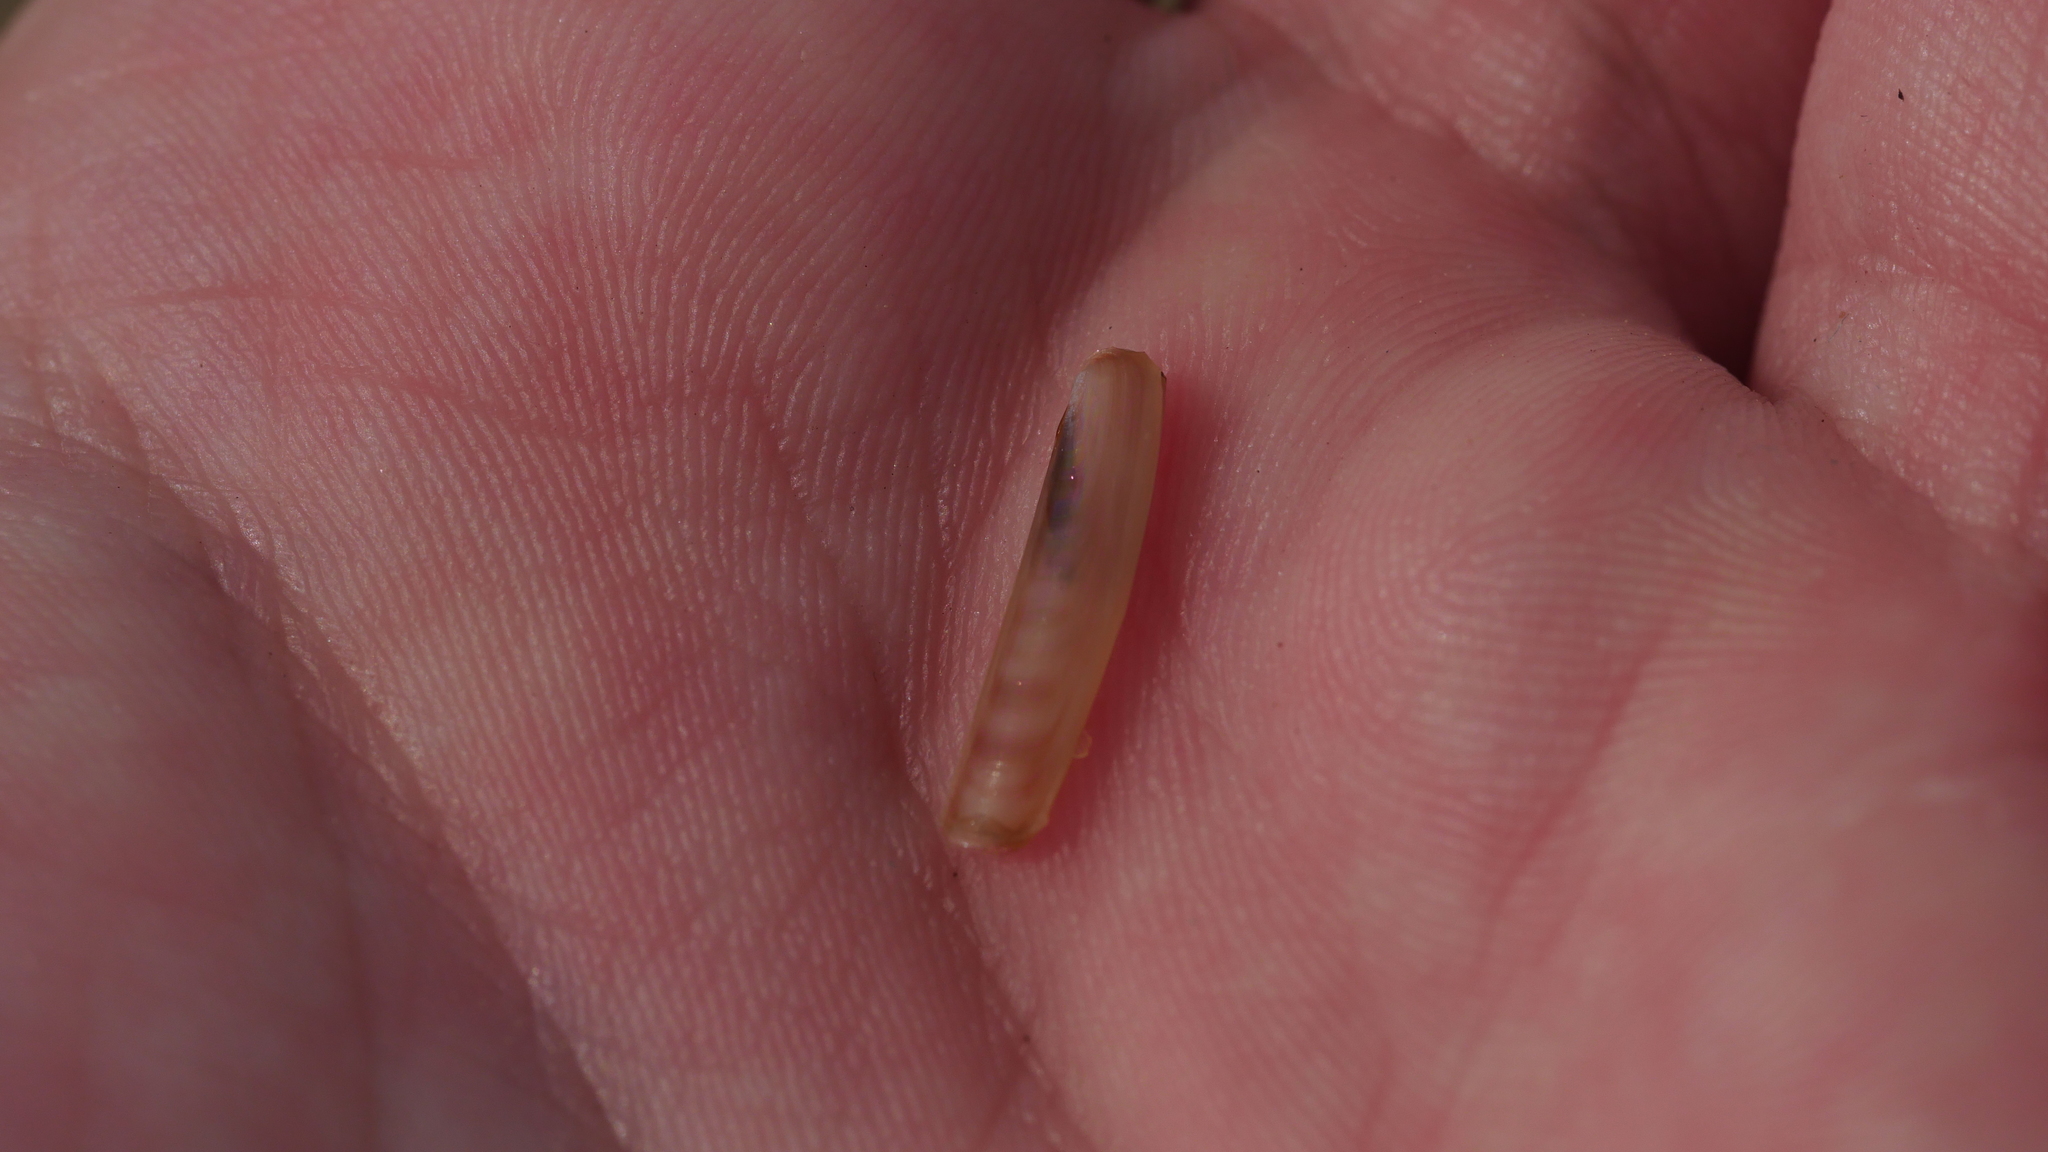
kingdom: Animalia
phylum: Mollusca
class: Bivalvia
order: Adapedonta
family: Solenidae
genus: Solen
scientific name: Solen viridis
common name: Green jackknife
